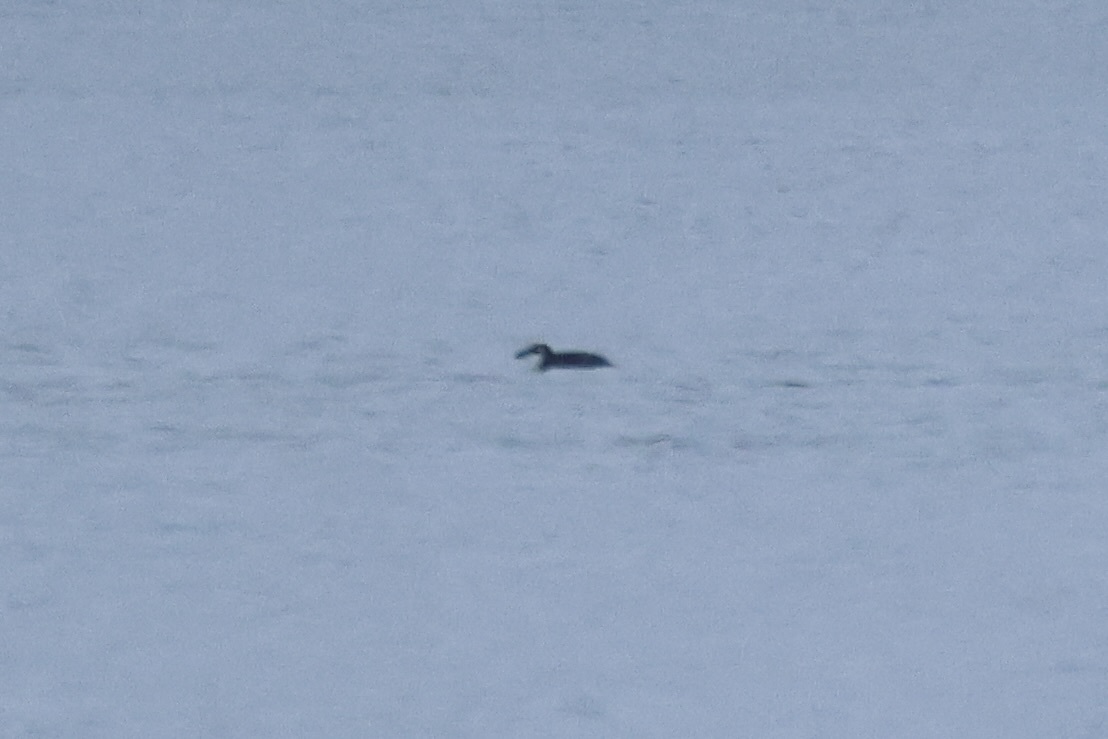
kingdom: Animalia
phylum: Chordata
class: Aves
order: Charadriiformes
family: Alcidae
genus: Alca
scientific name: Alca torda
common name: Razorbill
